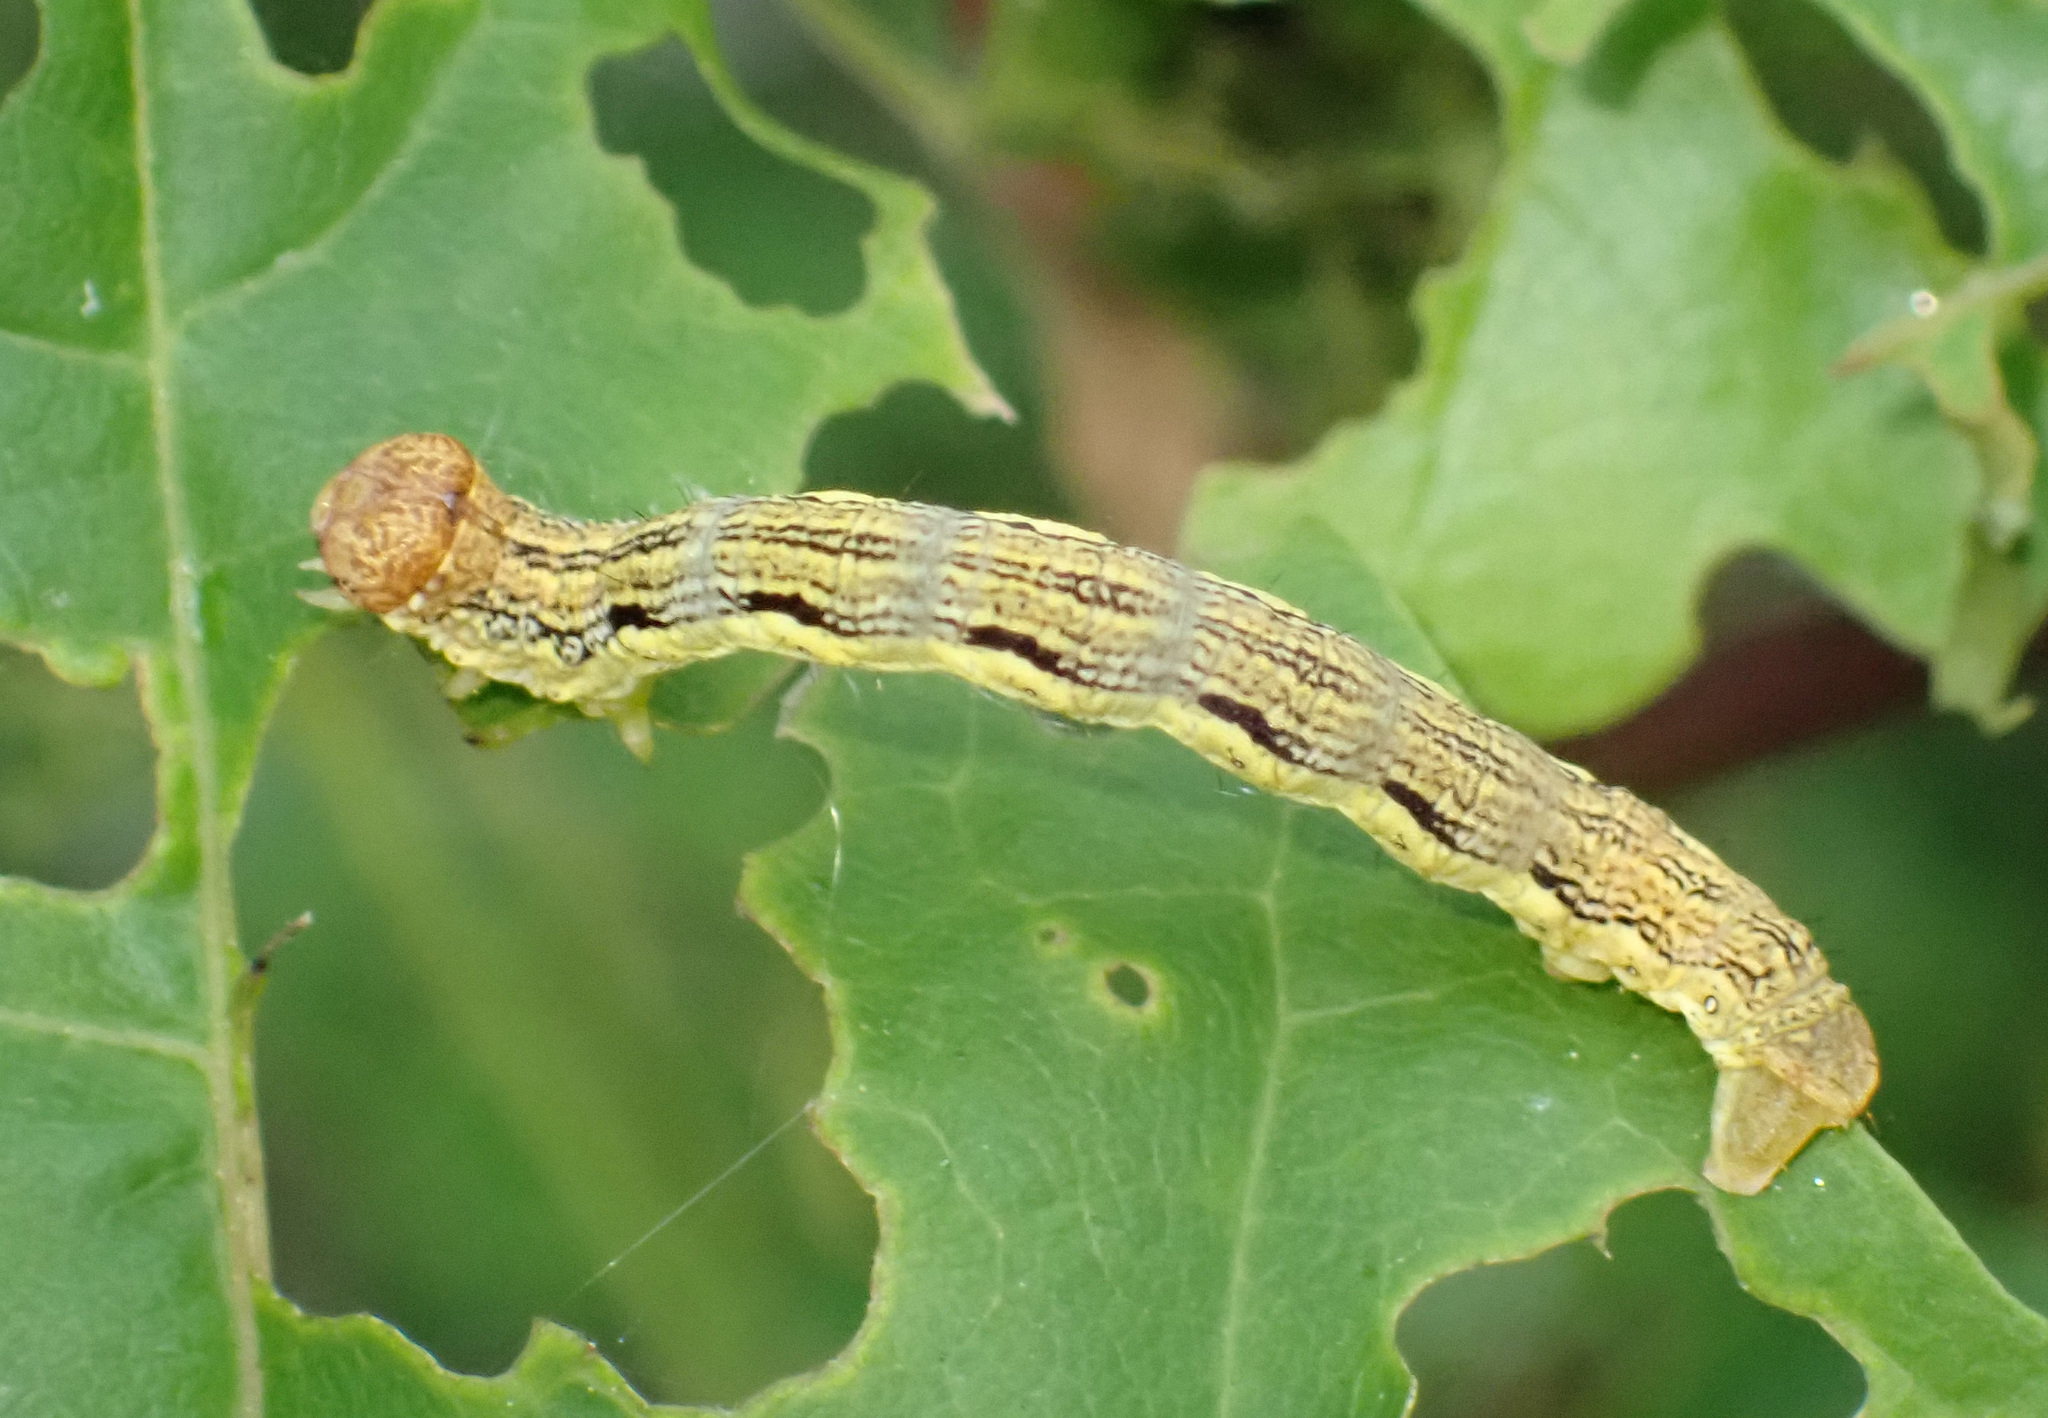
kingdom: Animalia
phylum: Arthropoda
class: Insecta
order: Lepidoptera
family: Geometridae
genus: Erannis
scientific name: Erannis defoliaria
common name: Mottled umber
